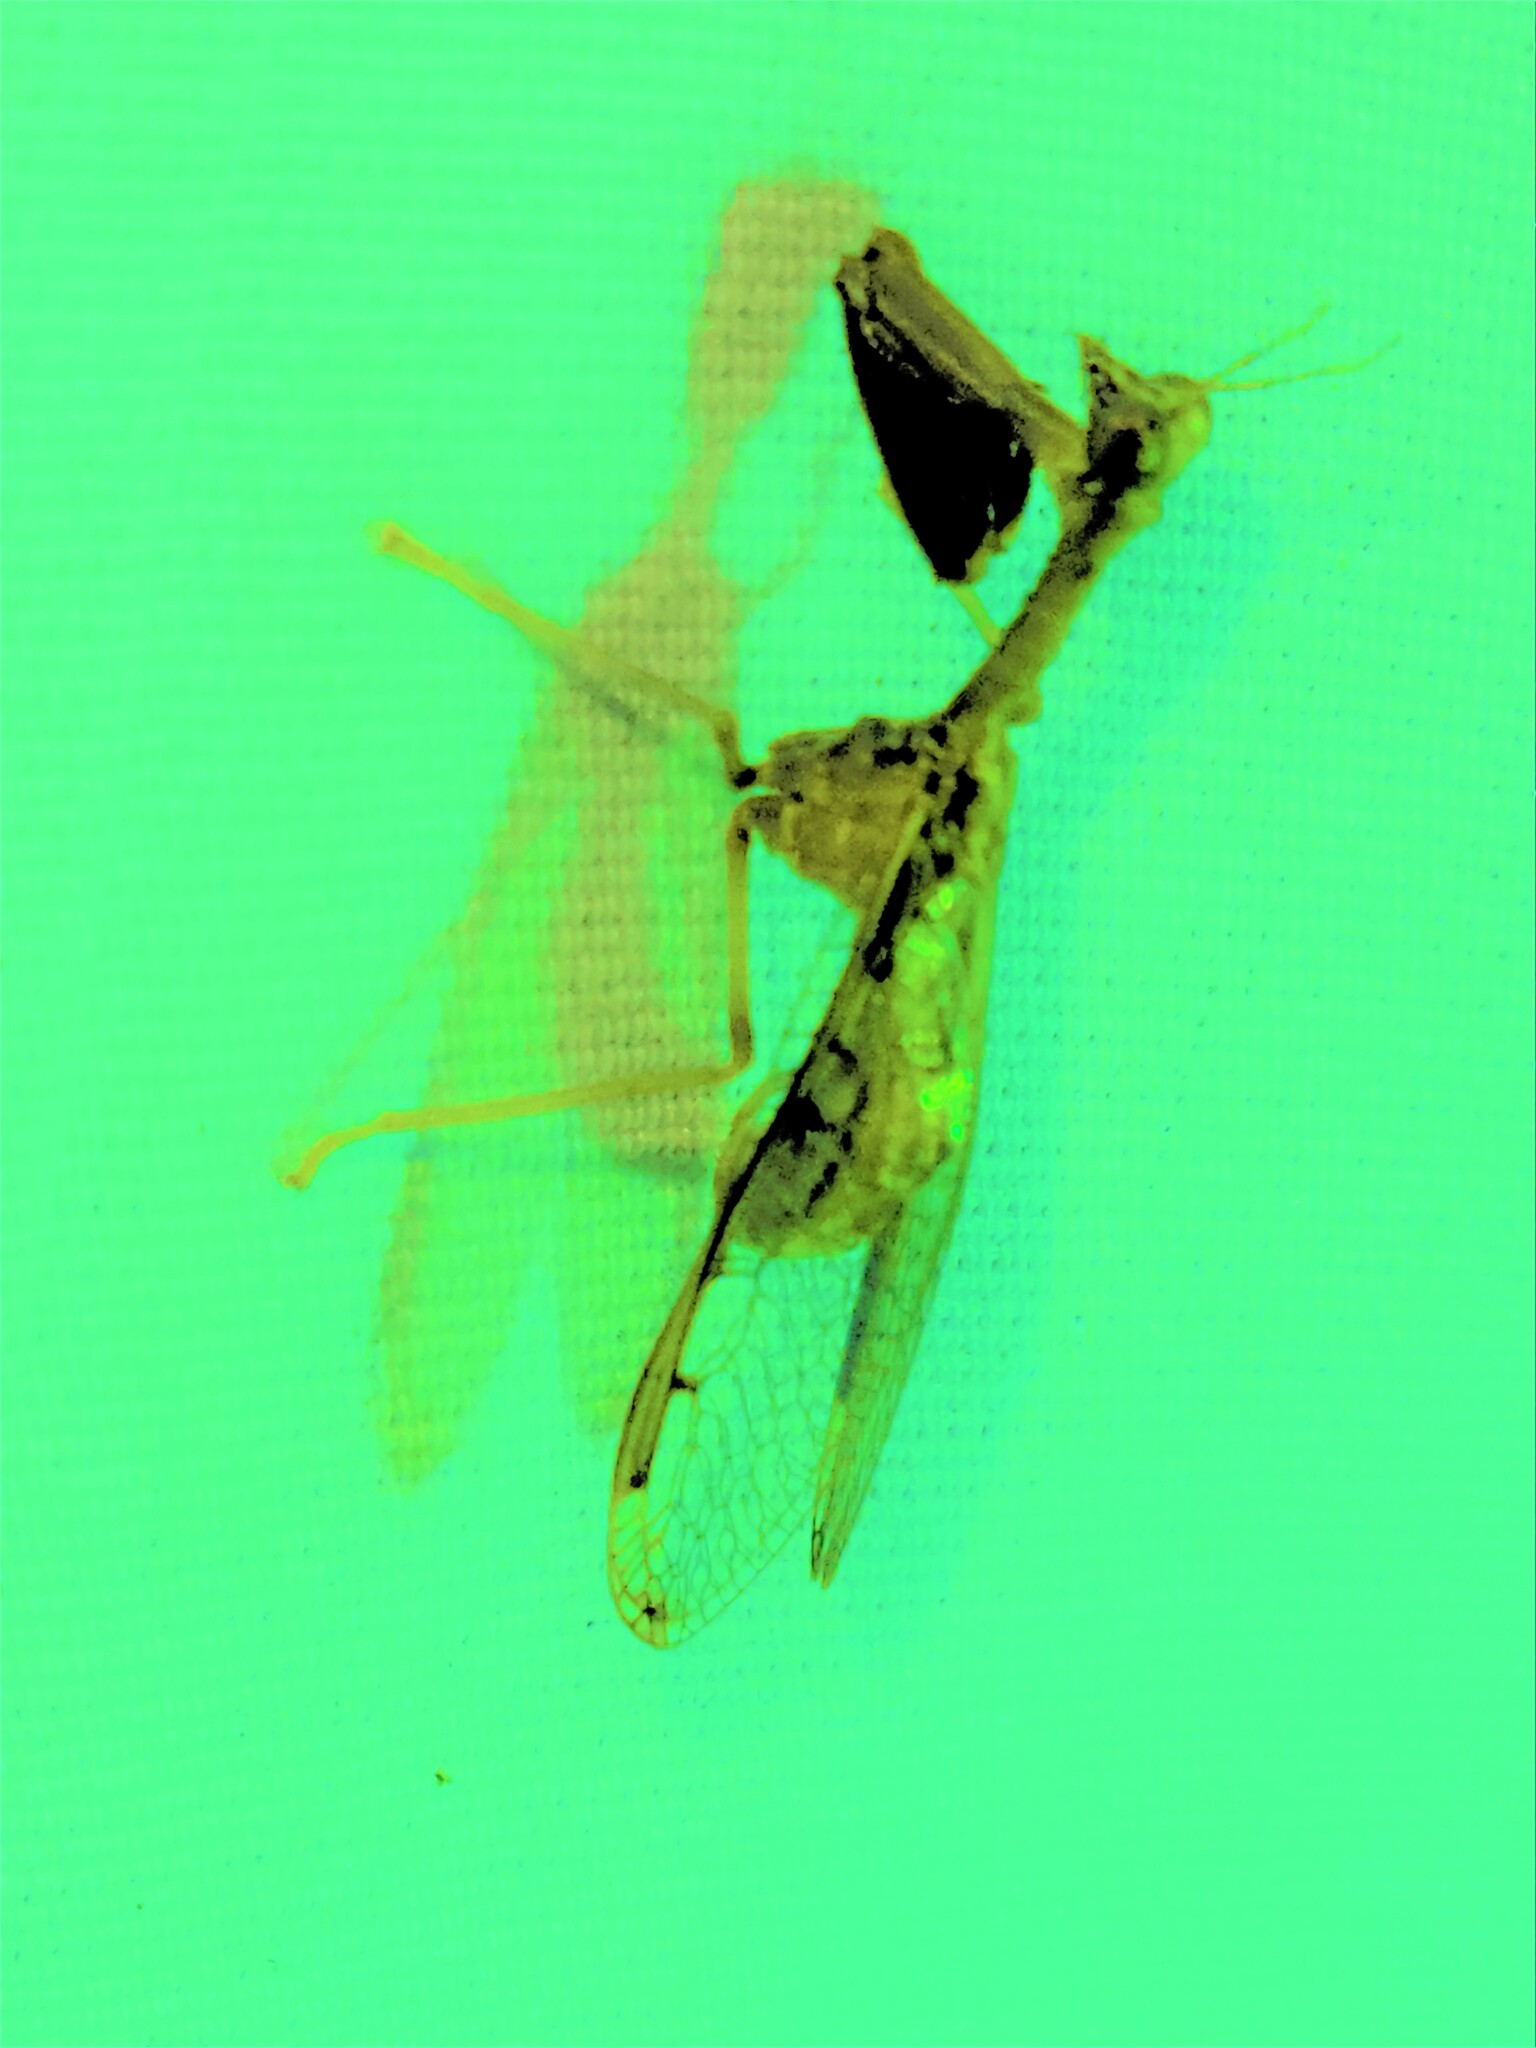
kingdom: Animalia
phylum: Arthropoda
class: Insecta
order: Neuroptera
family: Mantispidae
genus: Dicromantispa
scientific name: Dicromantispa interrupta
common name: Four-spotted mantidfly
